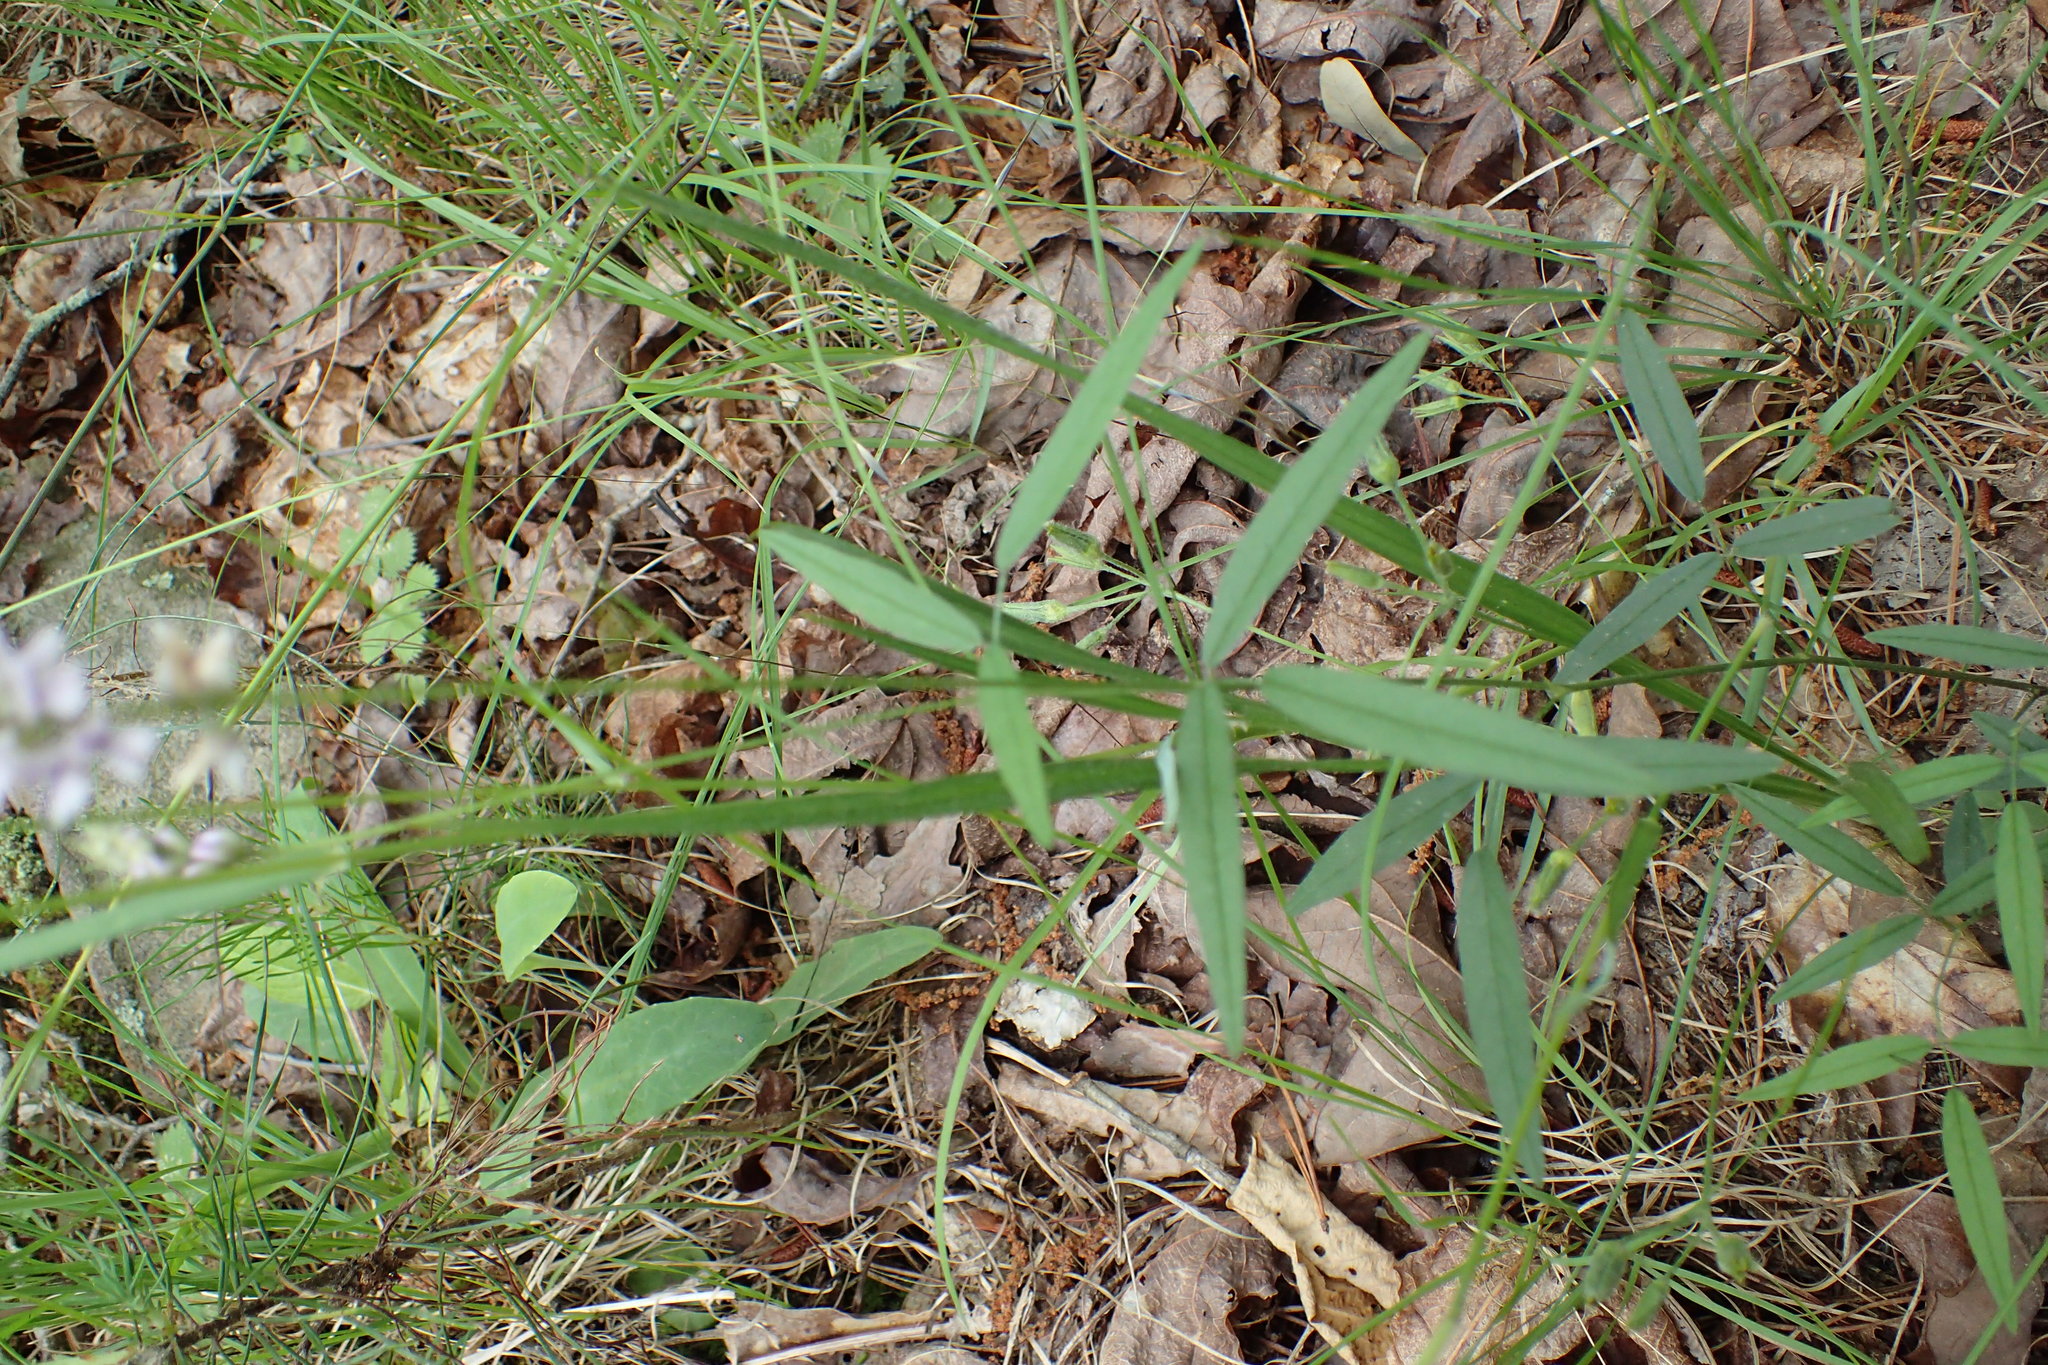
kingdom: Plantae
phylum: Tracheophyta
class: Magnoliopsida
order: Fabales
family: Fabaceae
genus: Orbexilum
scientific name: Orbexilum pedunculatum
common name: Sampson's snakeroot
